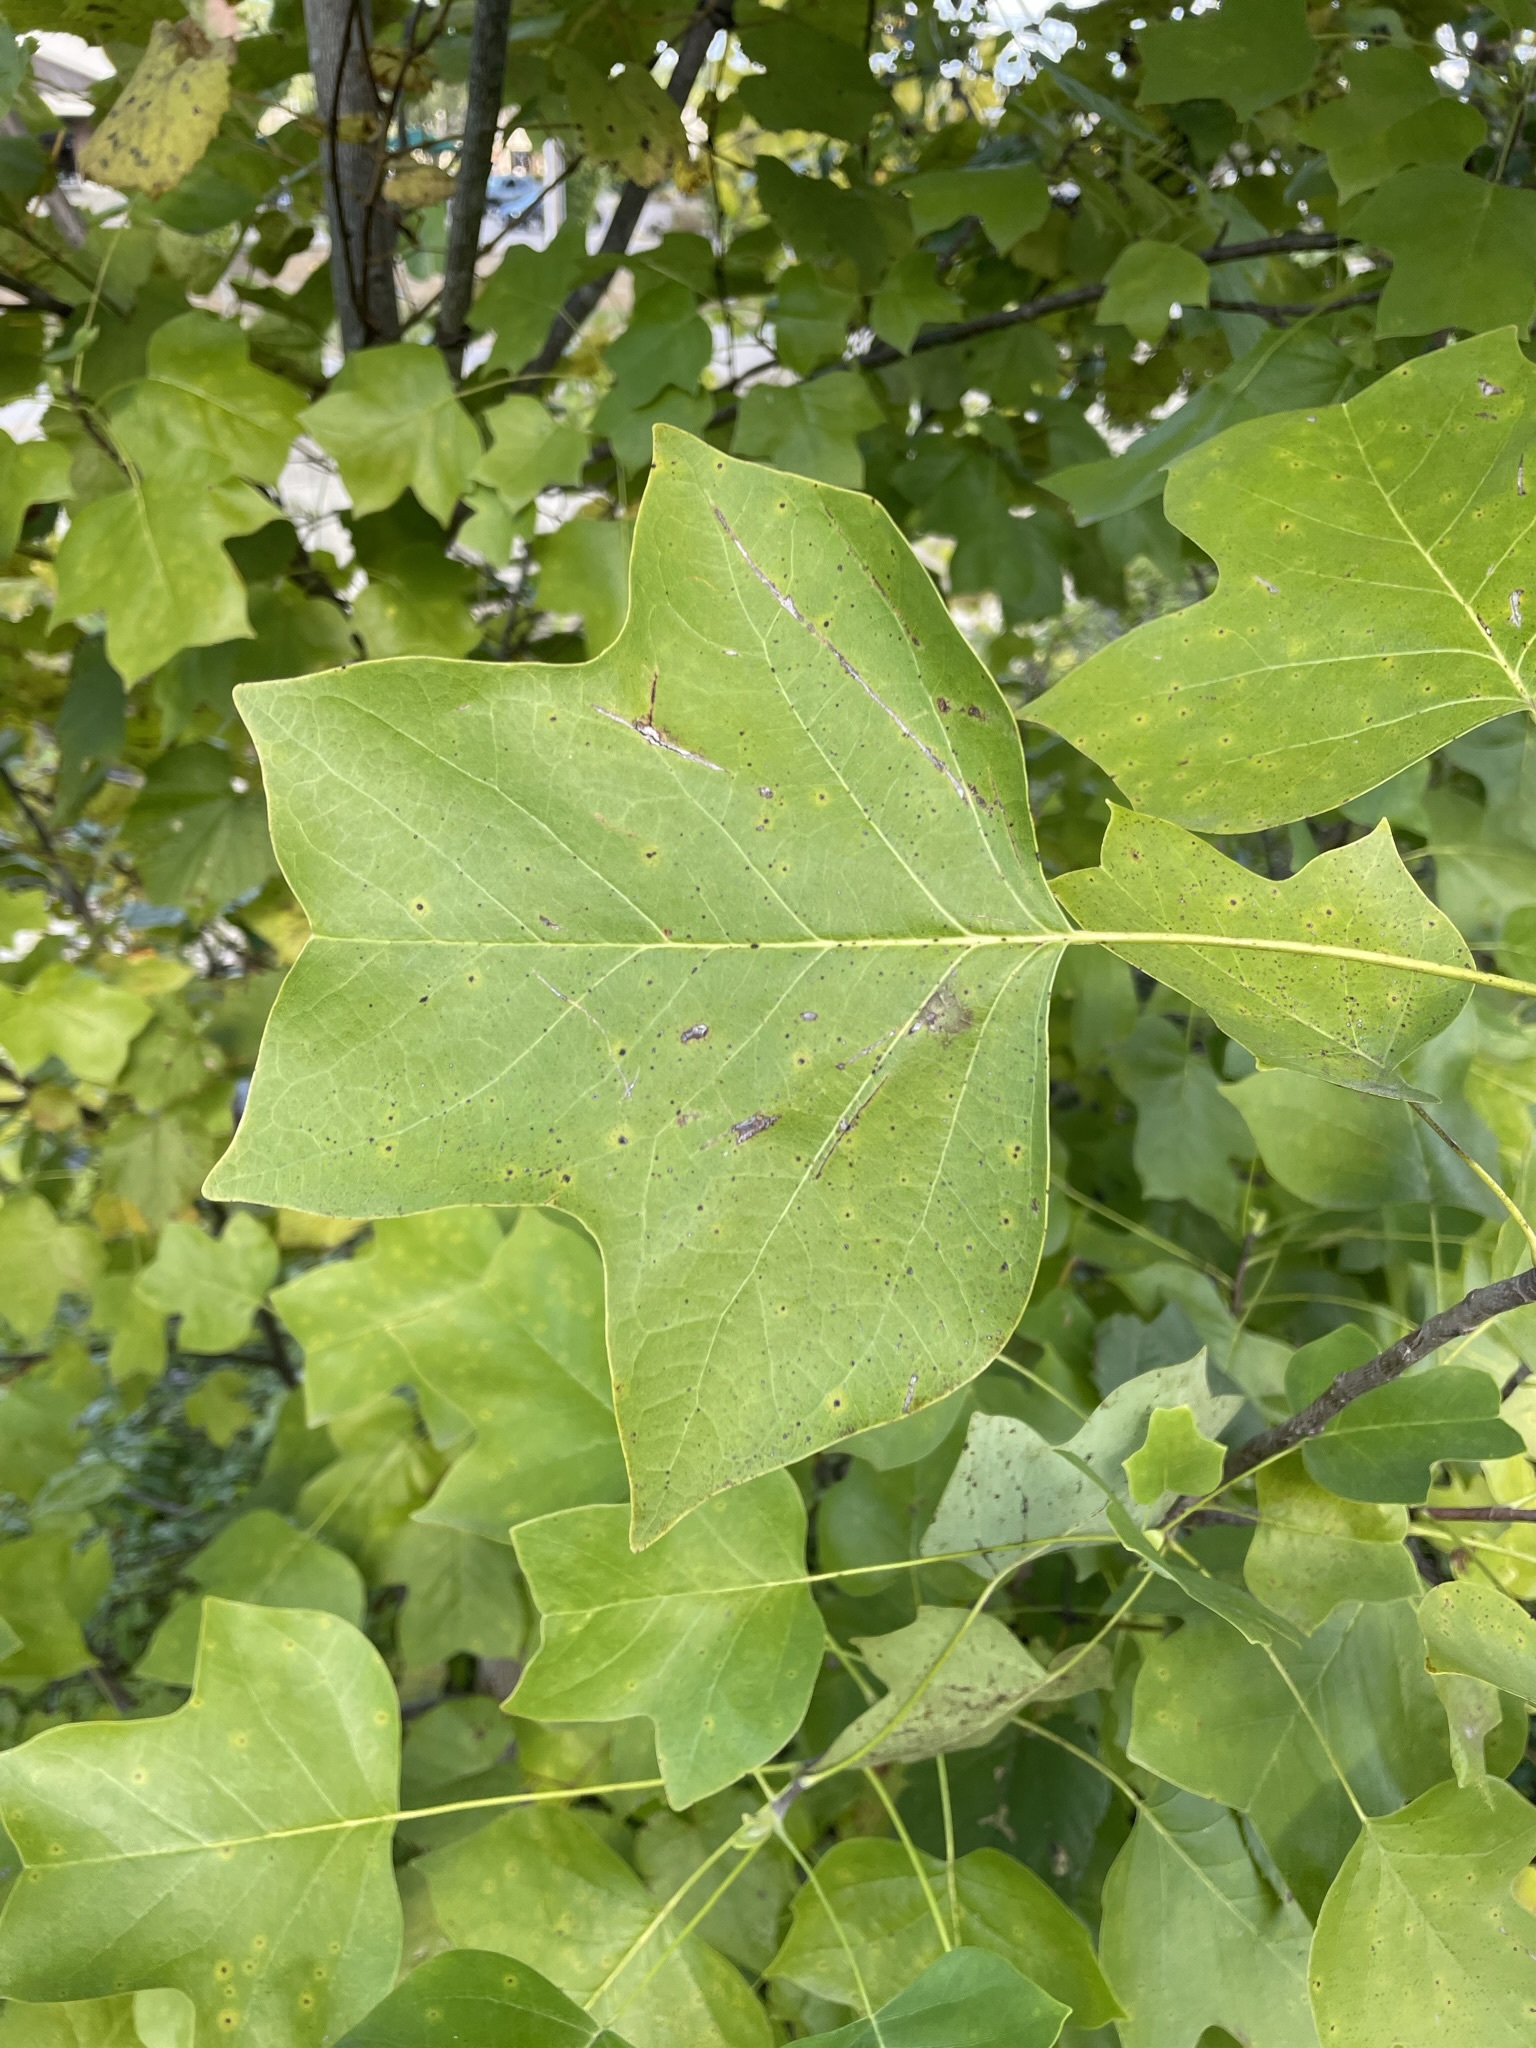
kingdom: Plantae
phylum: Tracheophyta
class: Magnoliopsida
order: Magnoliales
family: Magnoliaceae
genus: Liriodendron
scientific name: Liriodendron tulipifera
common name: Tulip tree
